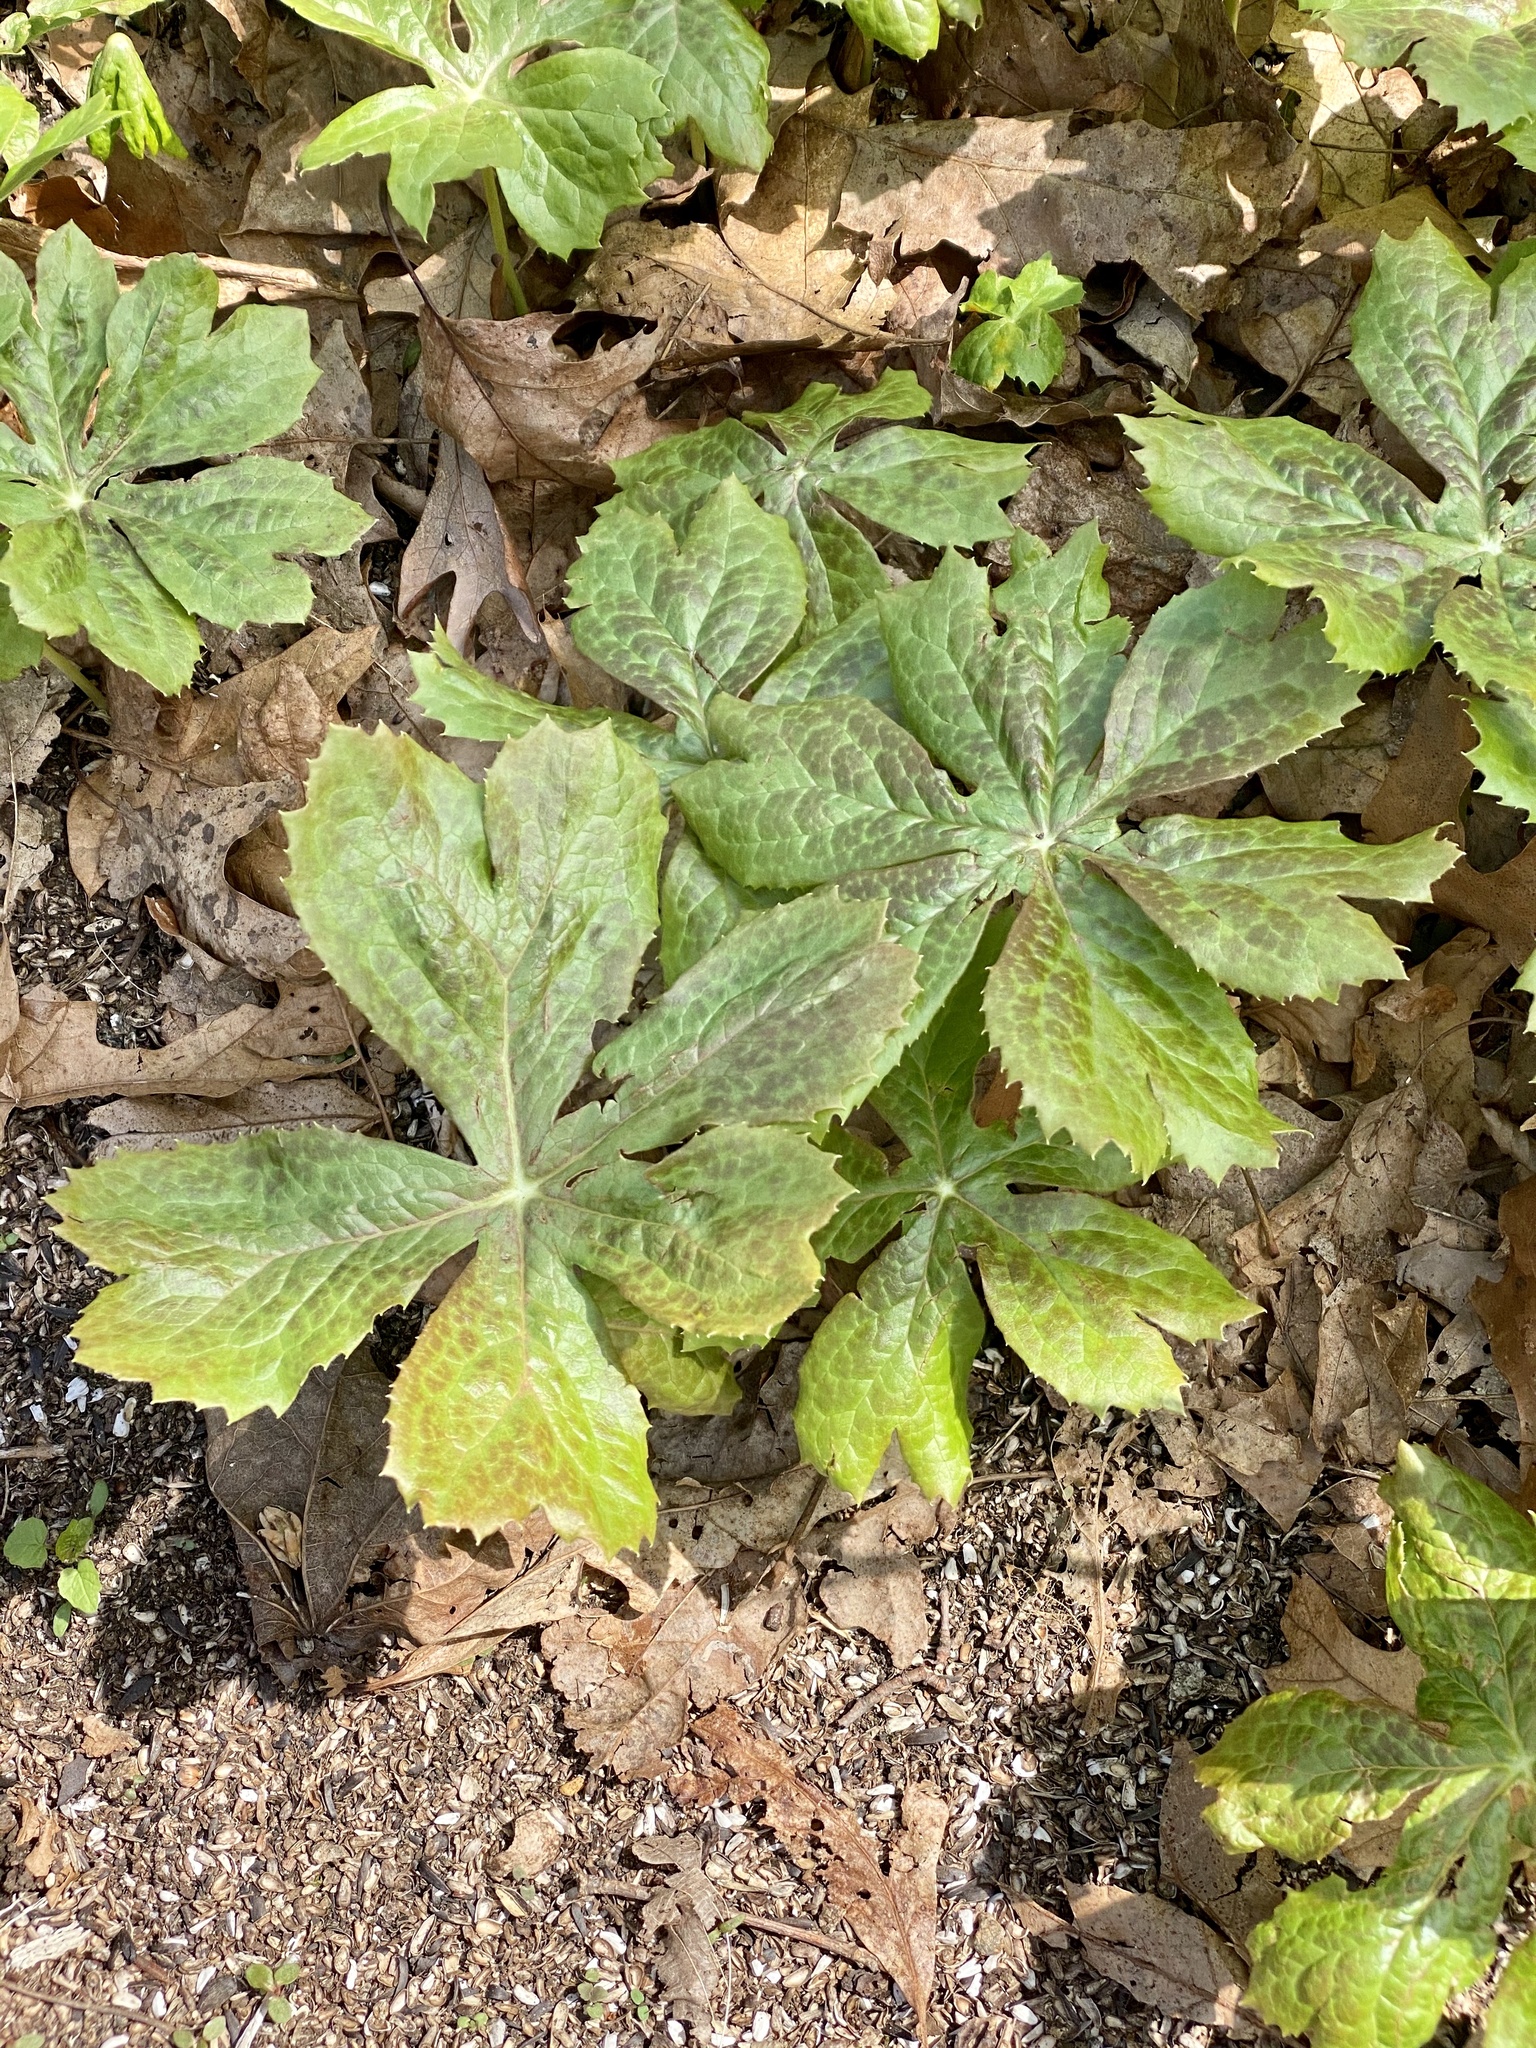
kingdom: Plantae
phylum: Tracheophyta
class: Magnoliopsida
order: Ranunculales
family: Berberidaceae
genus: Podophyllum
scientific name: Podophyllum peltatum
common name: Wild mandrake
